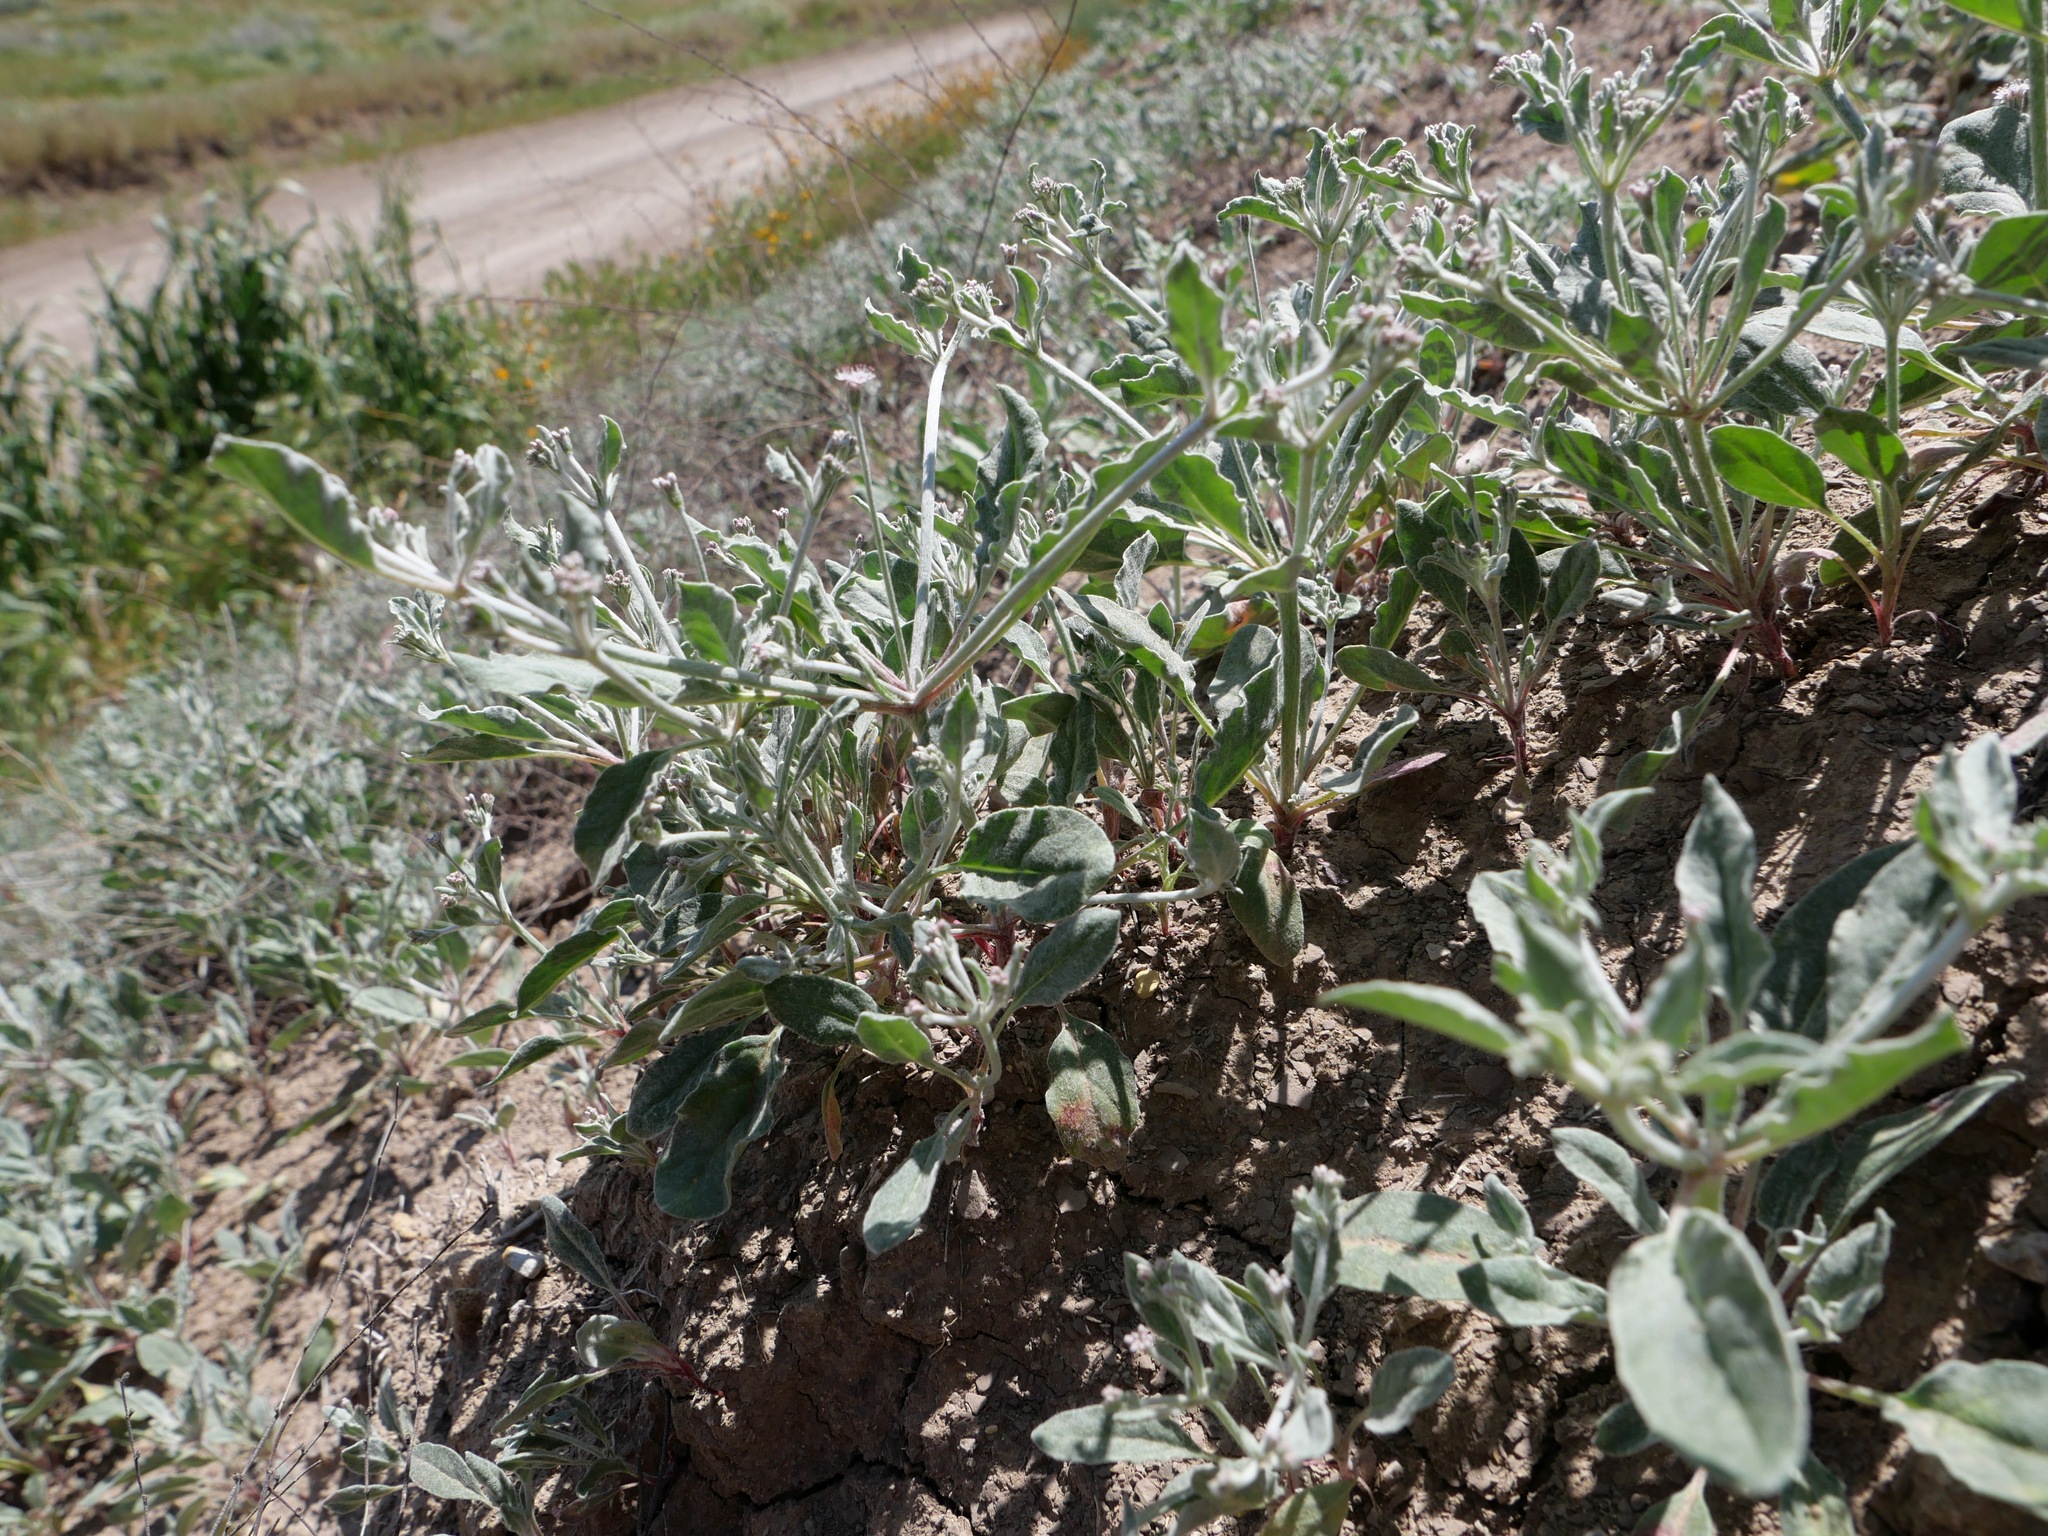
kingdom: Plantae
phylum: Tracheophyta
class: Magnoliopsida
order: Caryophyllales
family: Polygonaceae
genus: Eriogonum
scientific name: Eriogonum vestitum
